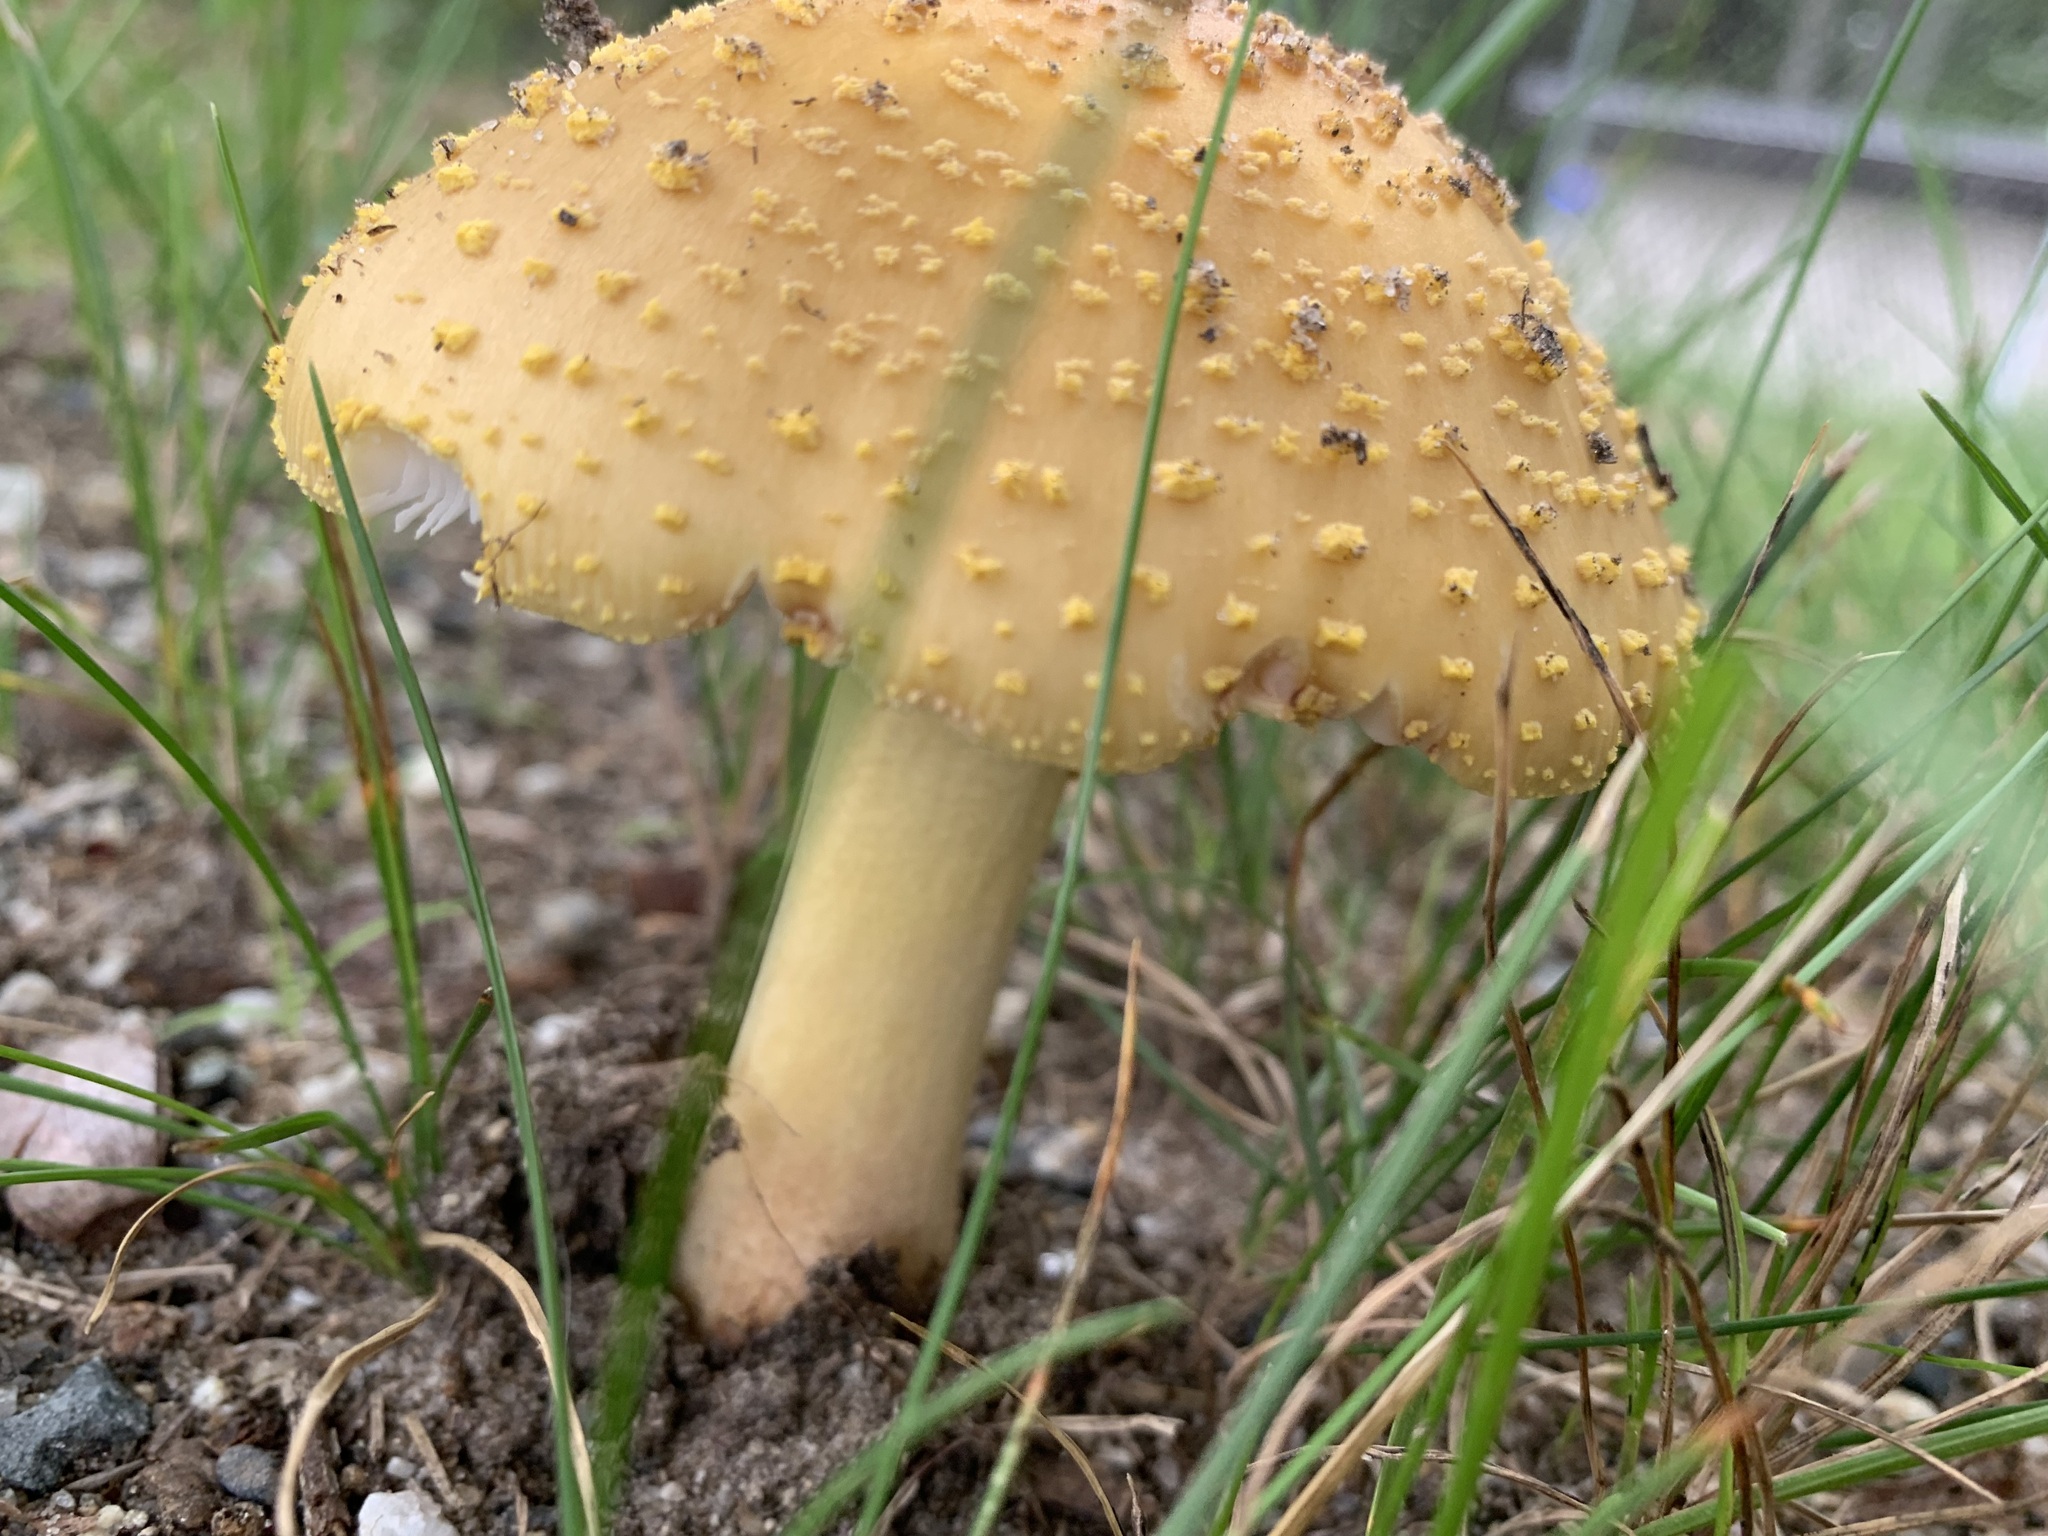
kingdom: Fungi
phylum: Basidiomycota
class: Agaricomycetes
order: Agaricales
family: Amanitaceae
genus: Amanita
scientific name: Amanita flavorubens
